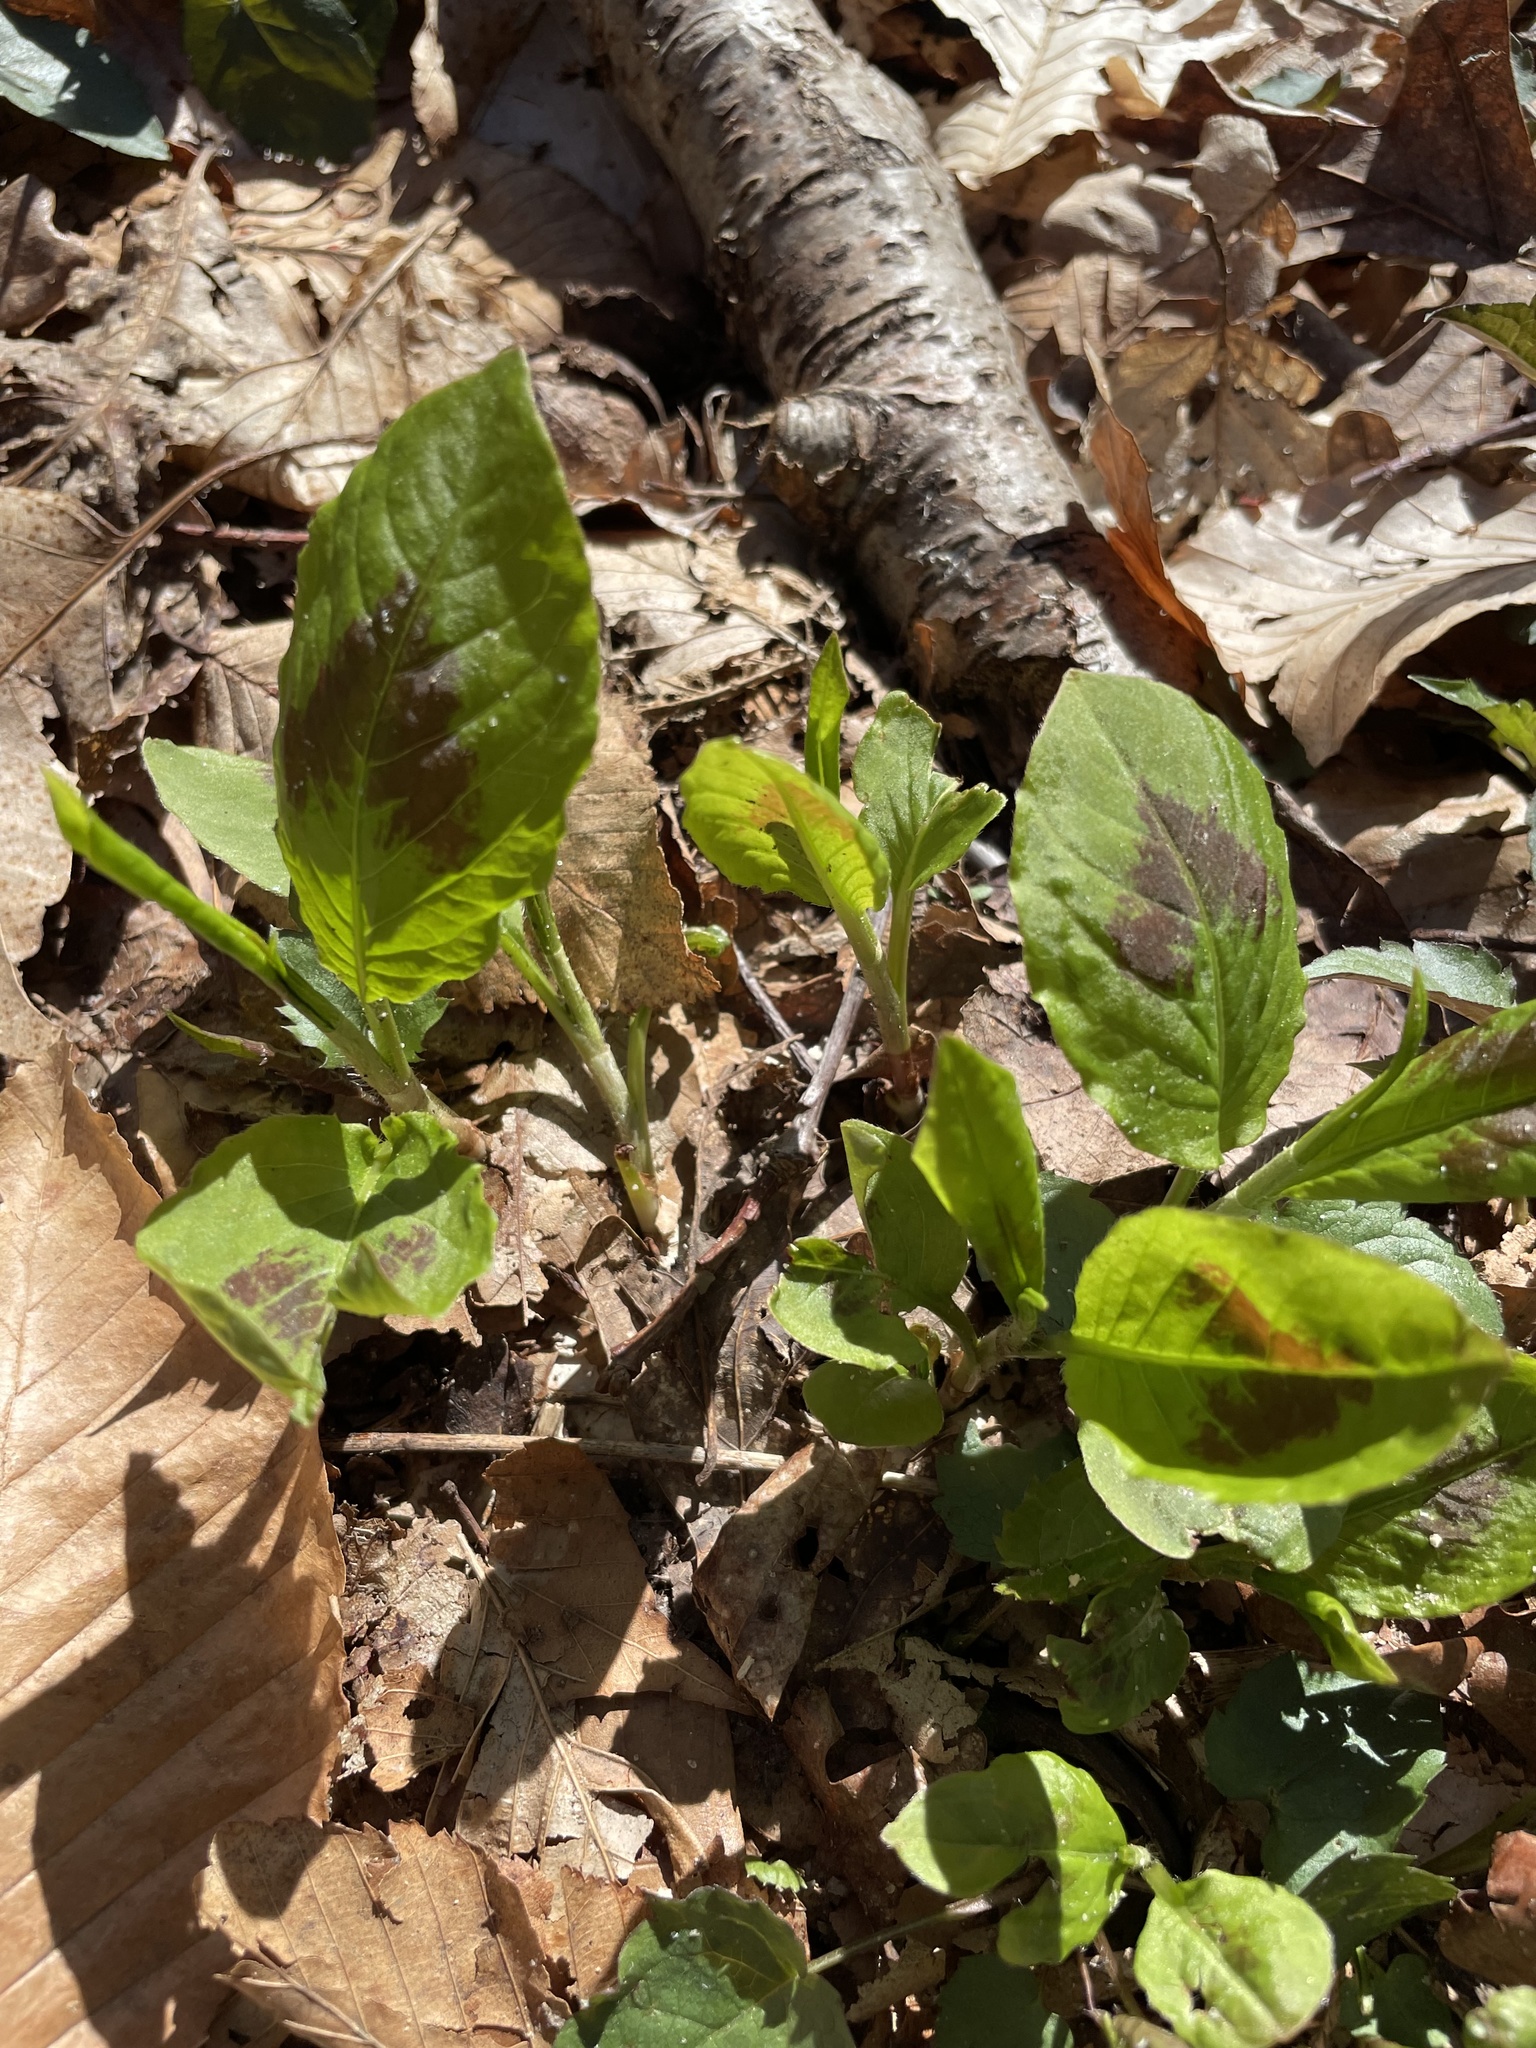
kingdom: Plantae
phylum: Tracheophyta
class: Magnoliopsida
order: Caryophyllales
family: Polygonaceae
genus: Persicaria
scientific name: Persicaria virginiana
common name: Jumpseed
